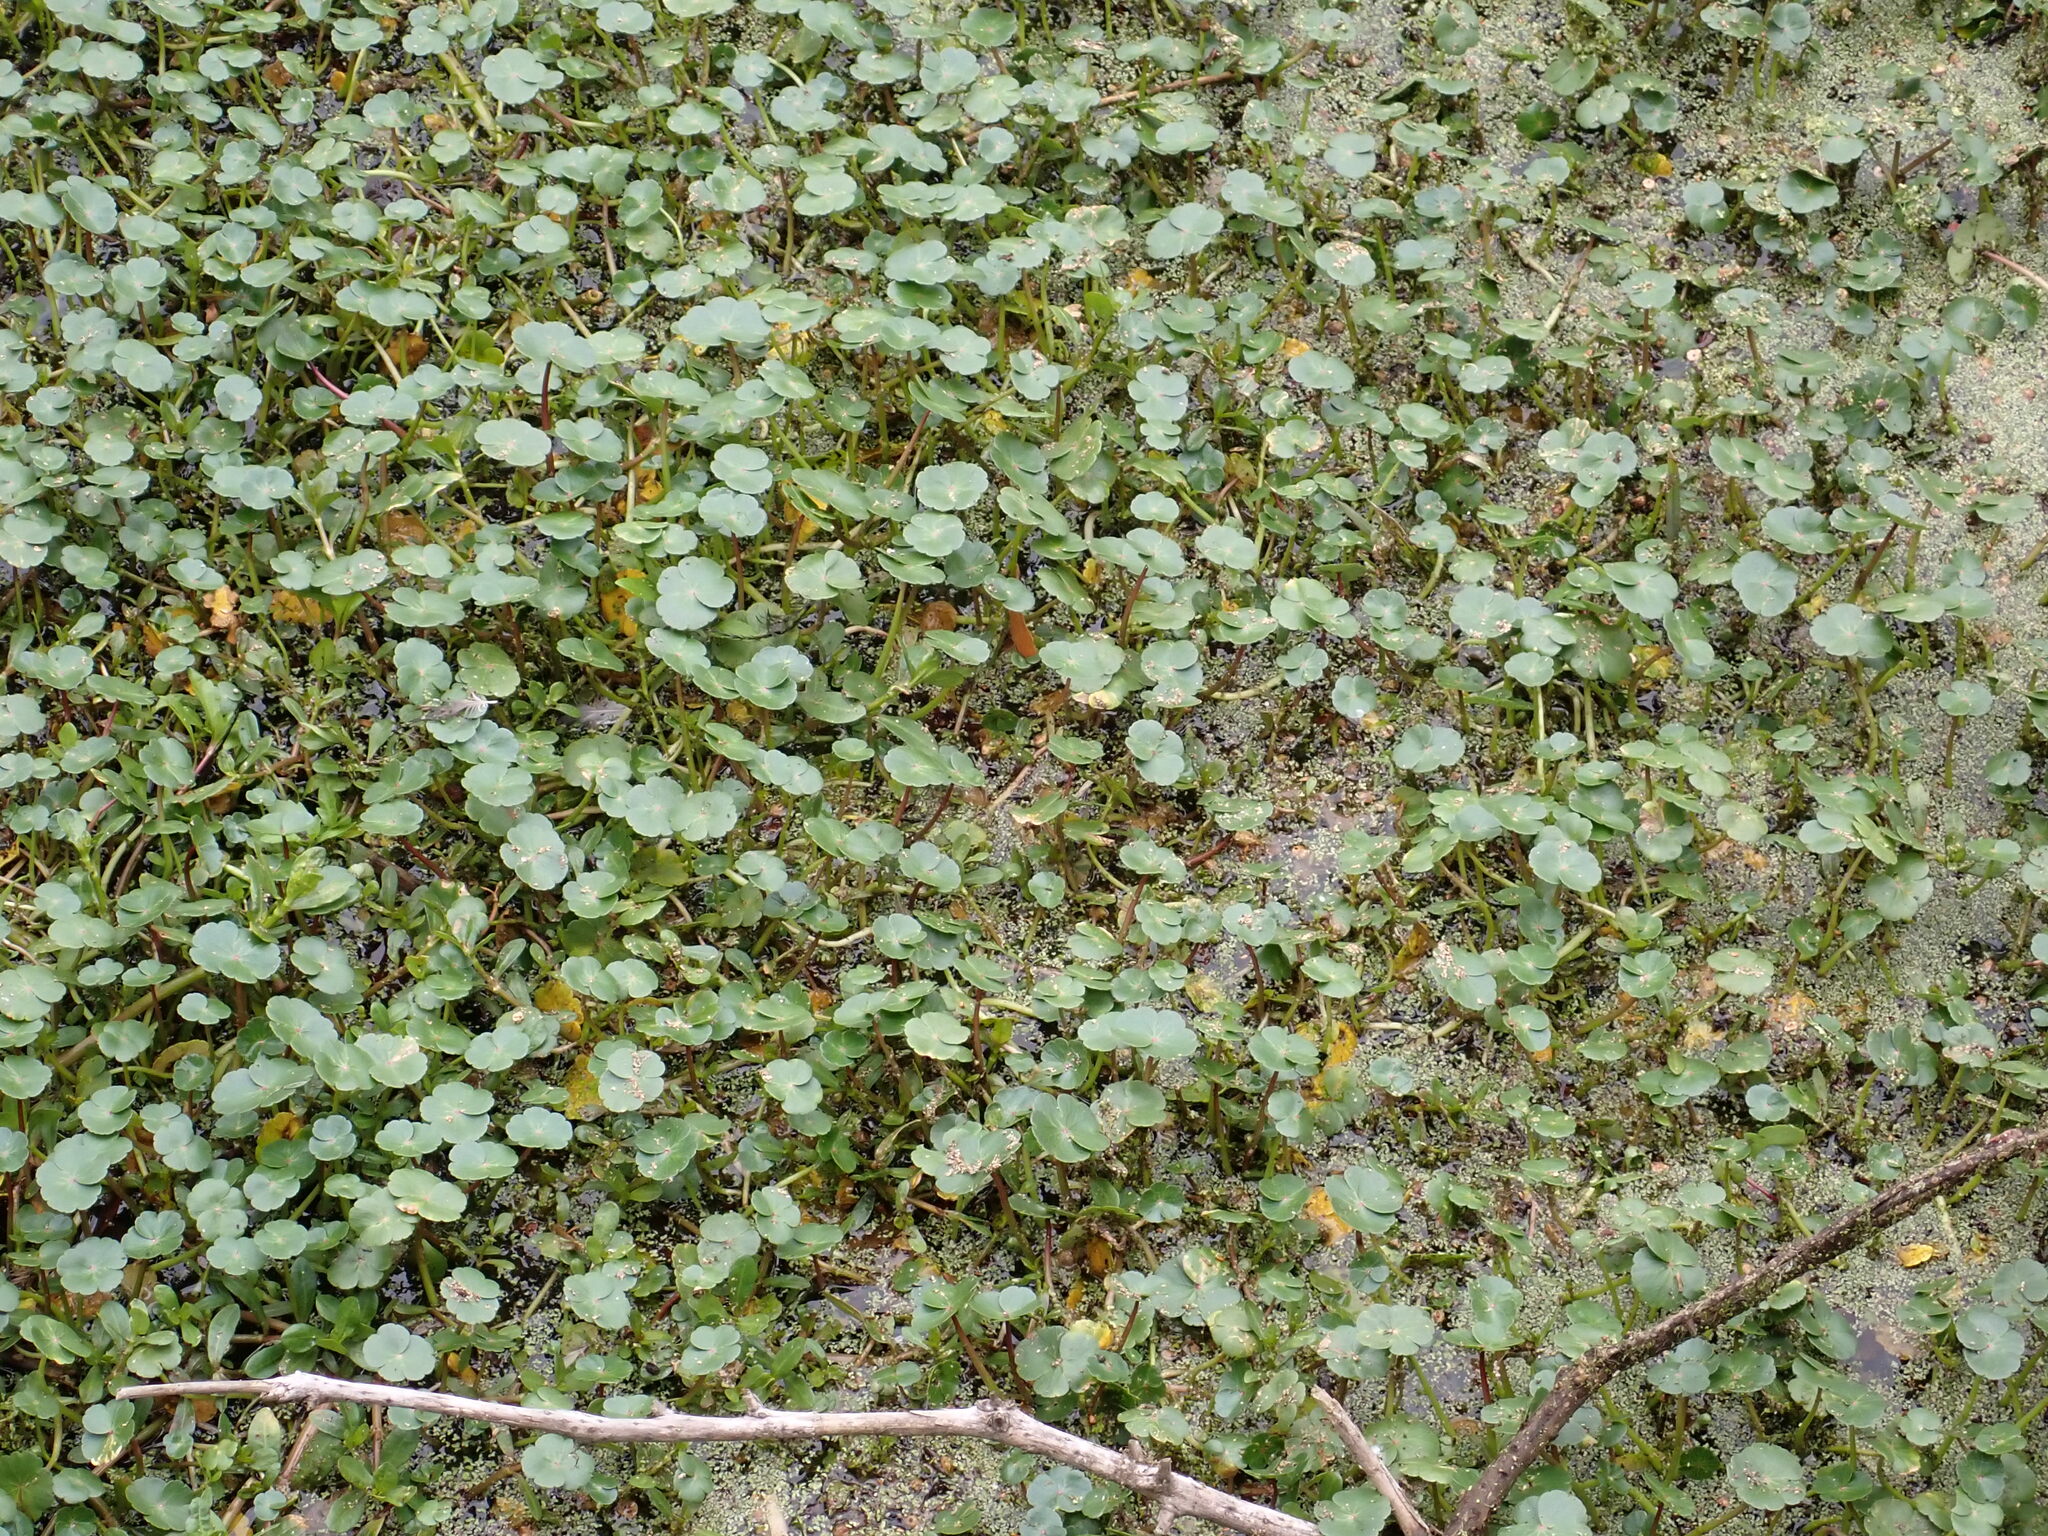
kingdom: Plantae
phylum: Tracheophyta
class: Magnoliopsida
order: Apiales
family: Araliaceae
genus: Hydrocotyle
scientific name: Hydrocotyle ranunculoides
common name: Floating pennywort
